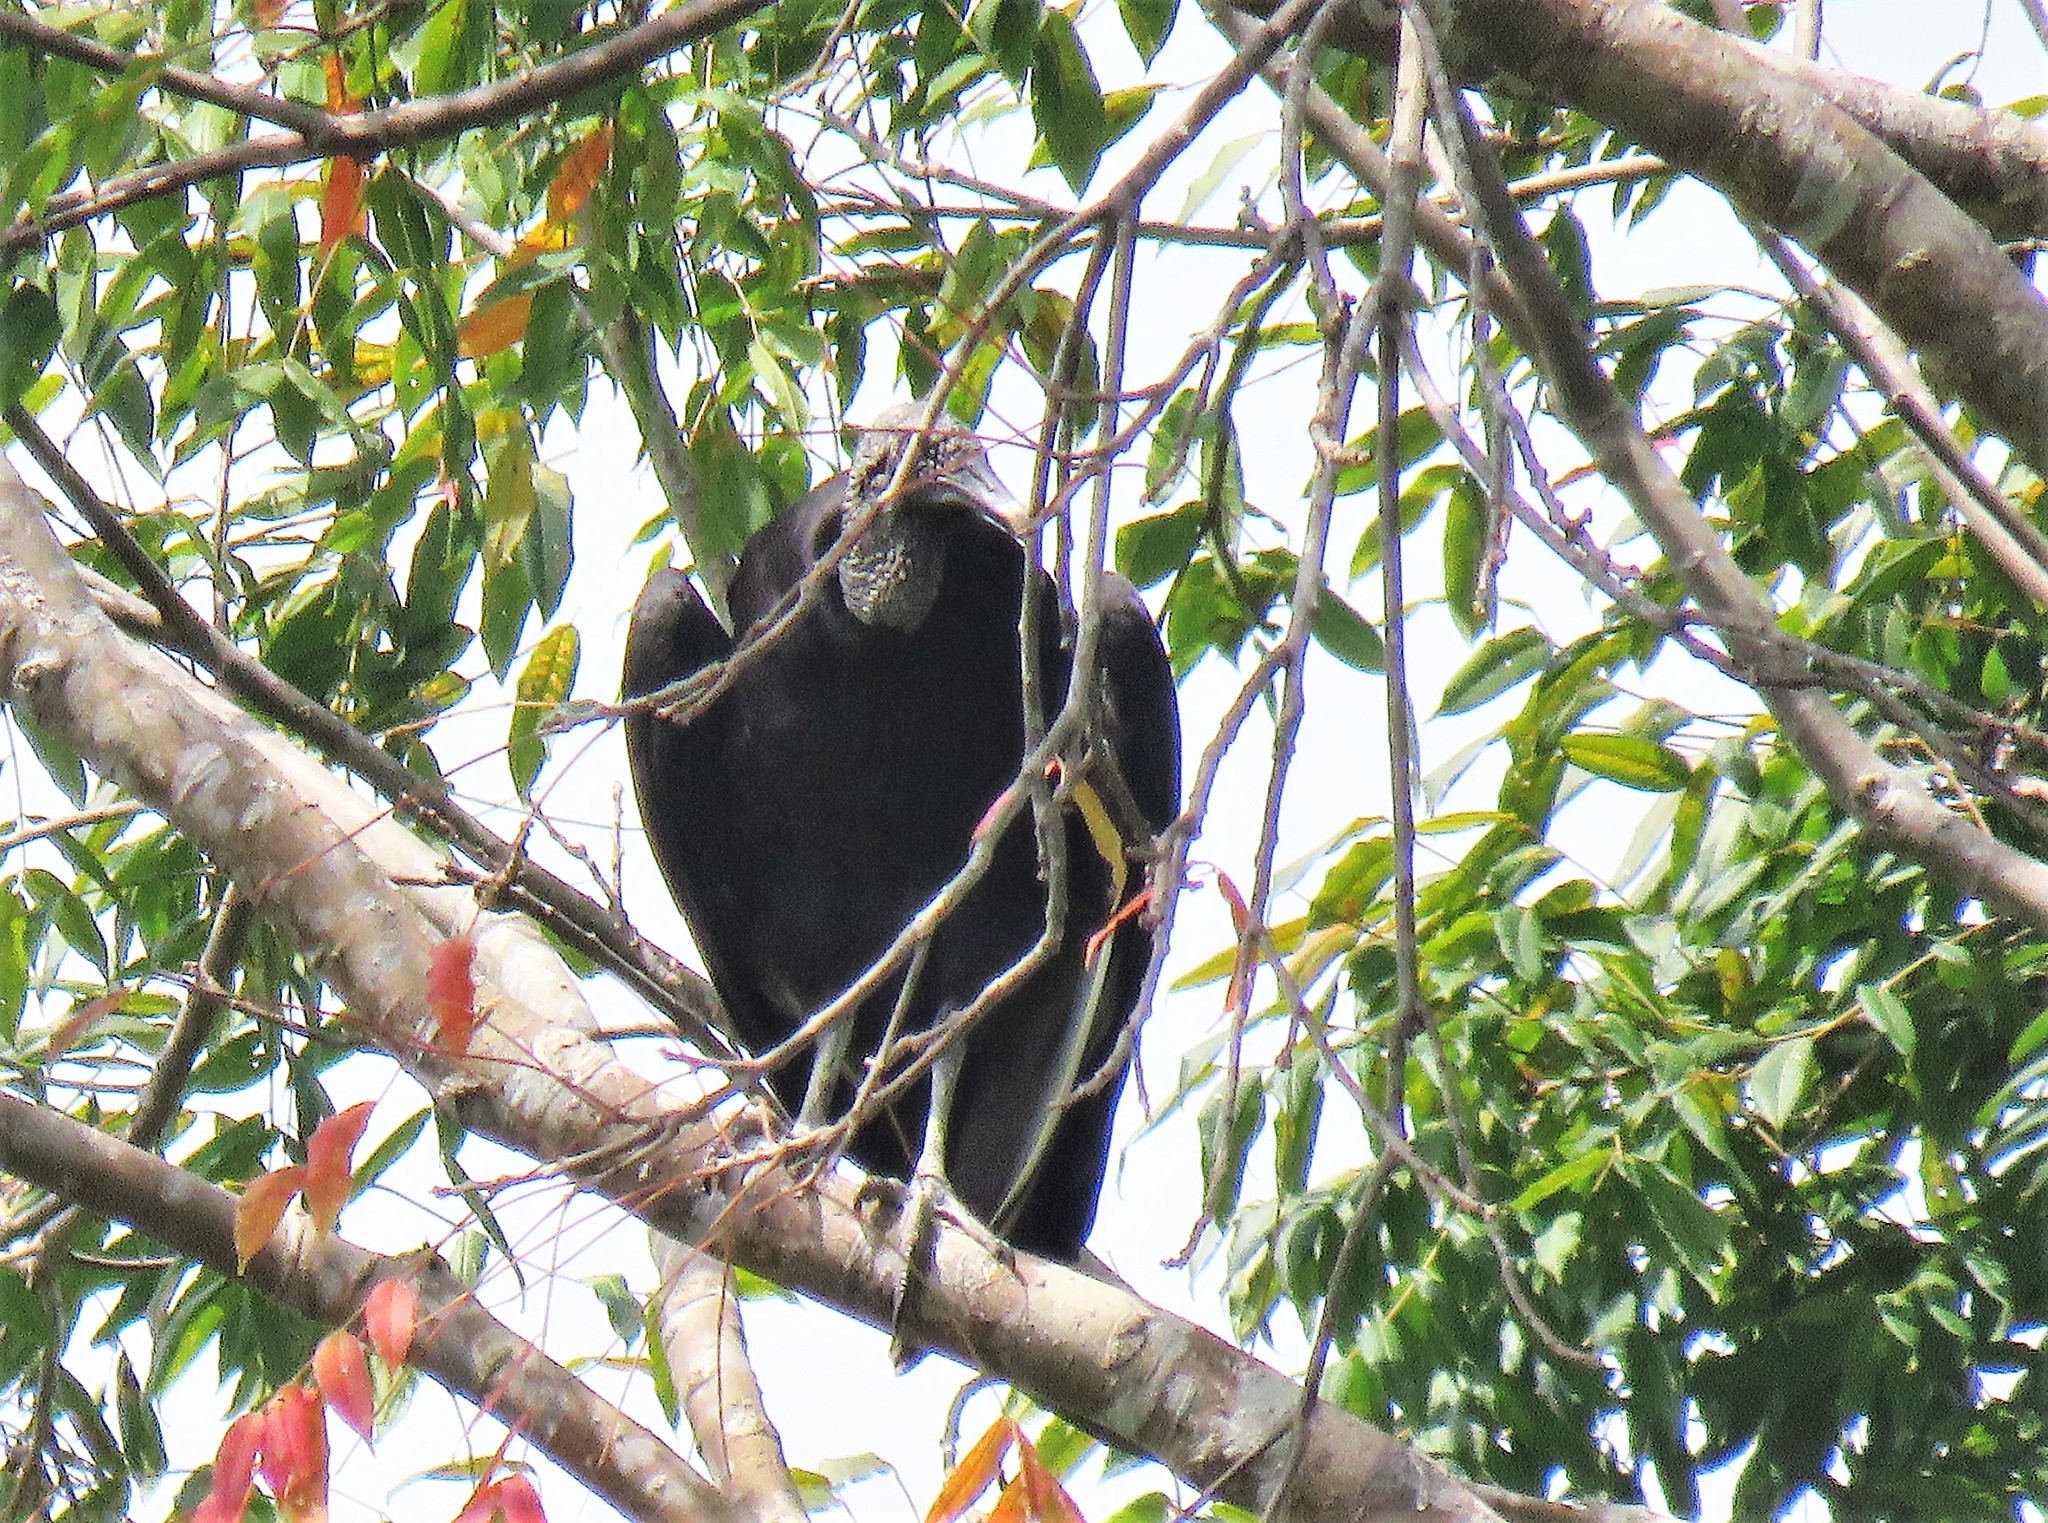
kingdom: Animalia
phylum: Chordata
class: Aves
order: Accipitriformes
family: Cathartidae
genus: Coragyps
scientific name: Coragyps atratus
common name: Black vulture
